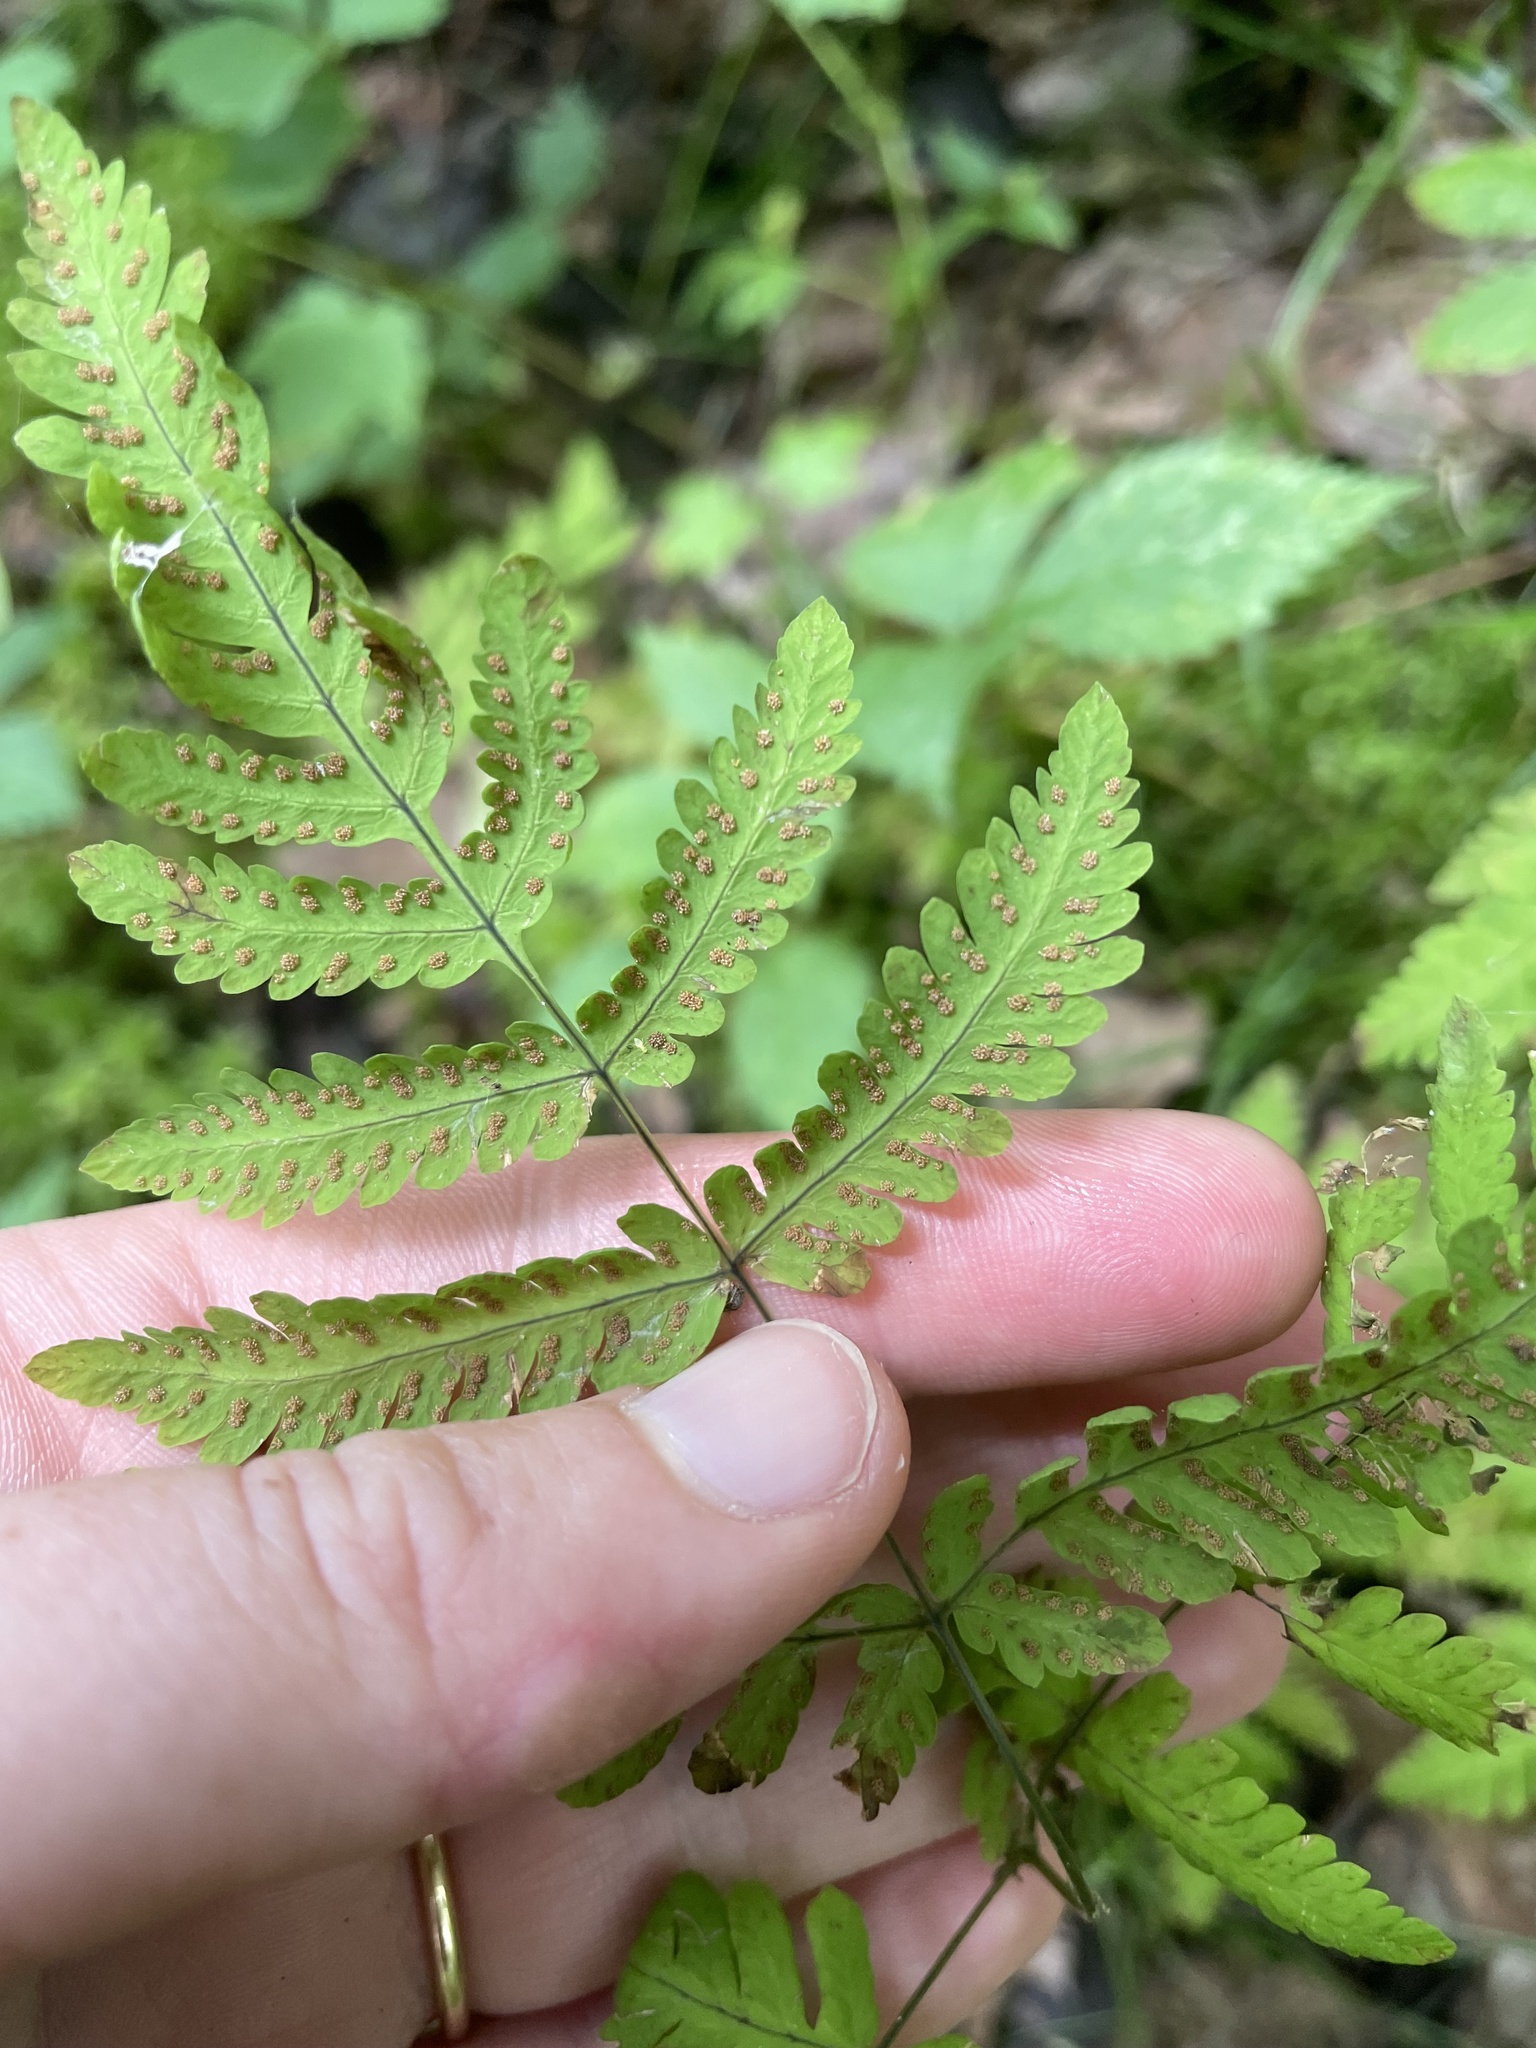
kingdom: Plantae
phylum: Tracheophyta
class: Polypodiopsida
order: Polypodiales
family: Cystopteridaceae
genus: Gymnocarpium
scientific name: Gymnocarpium dryopteris
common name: Oak fern
